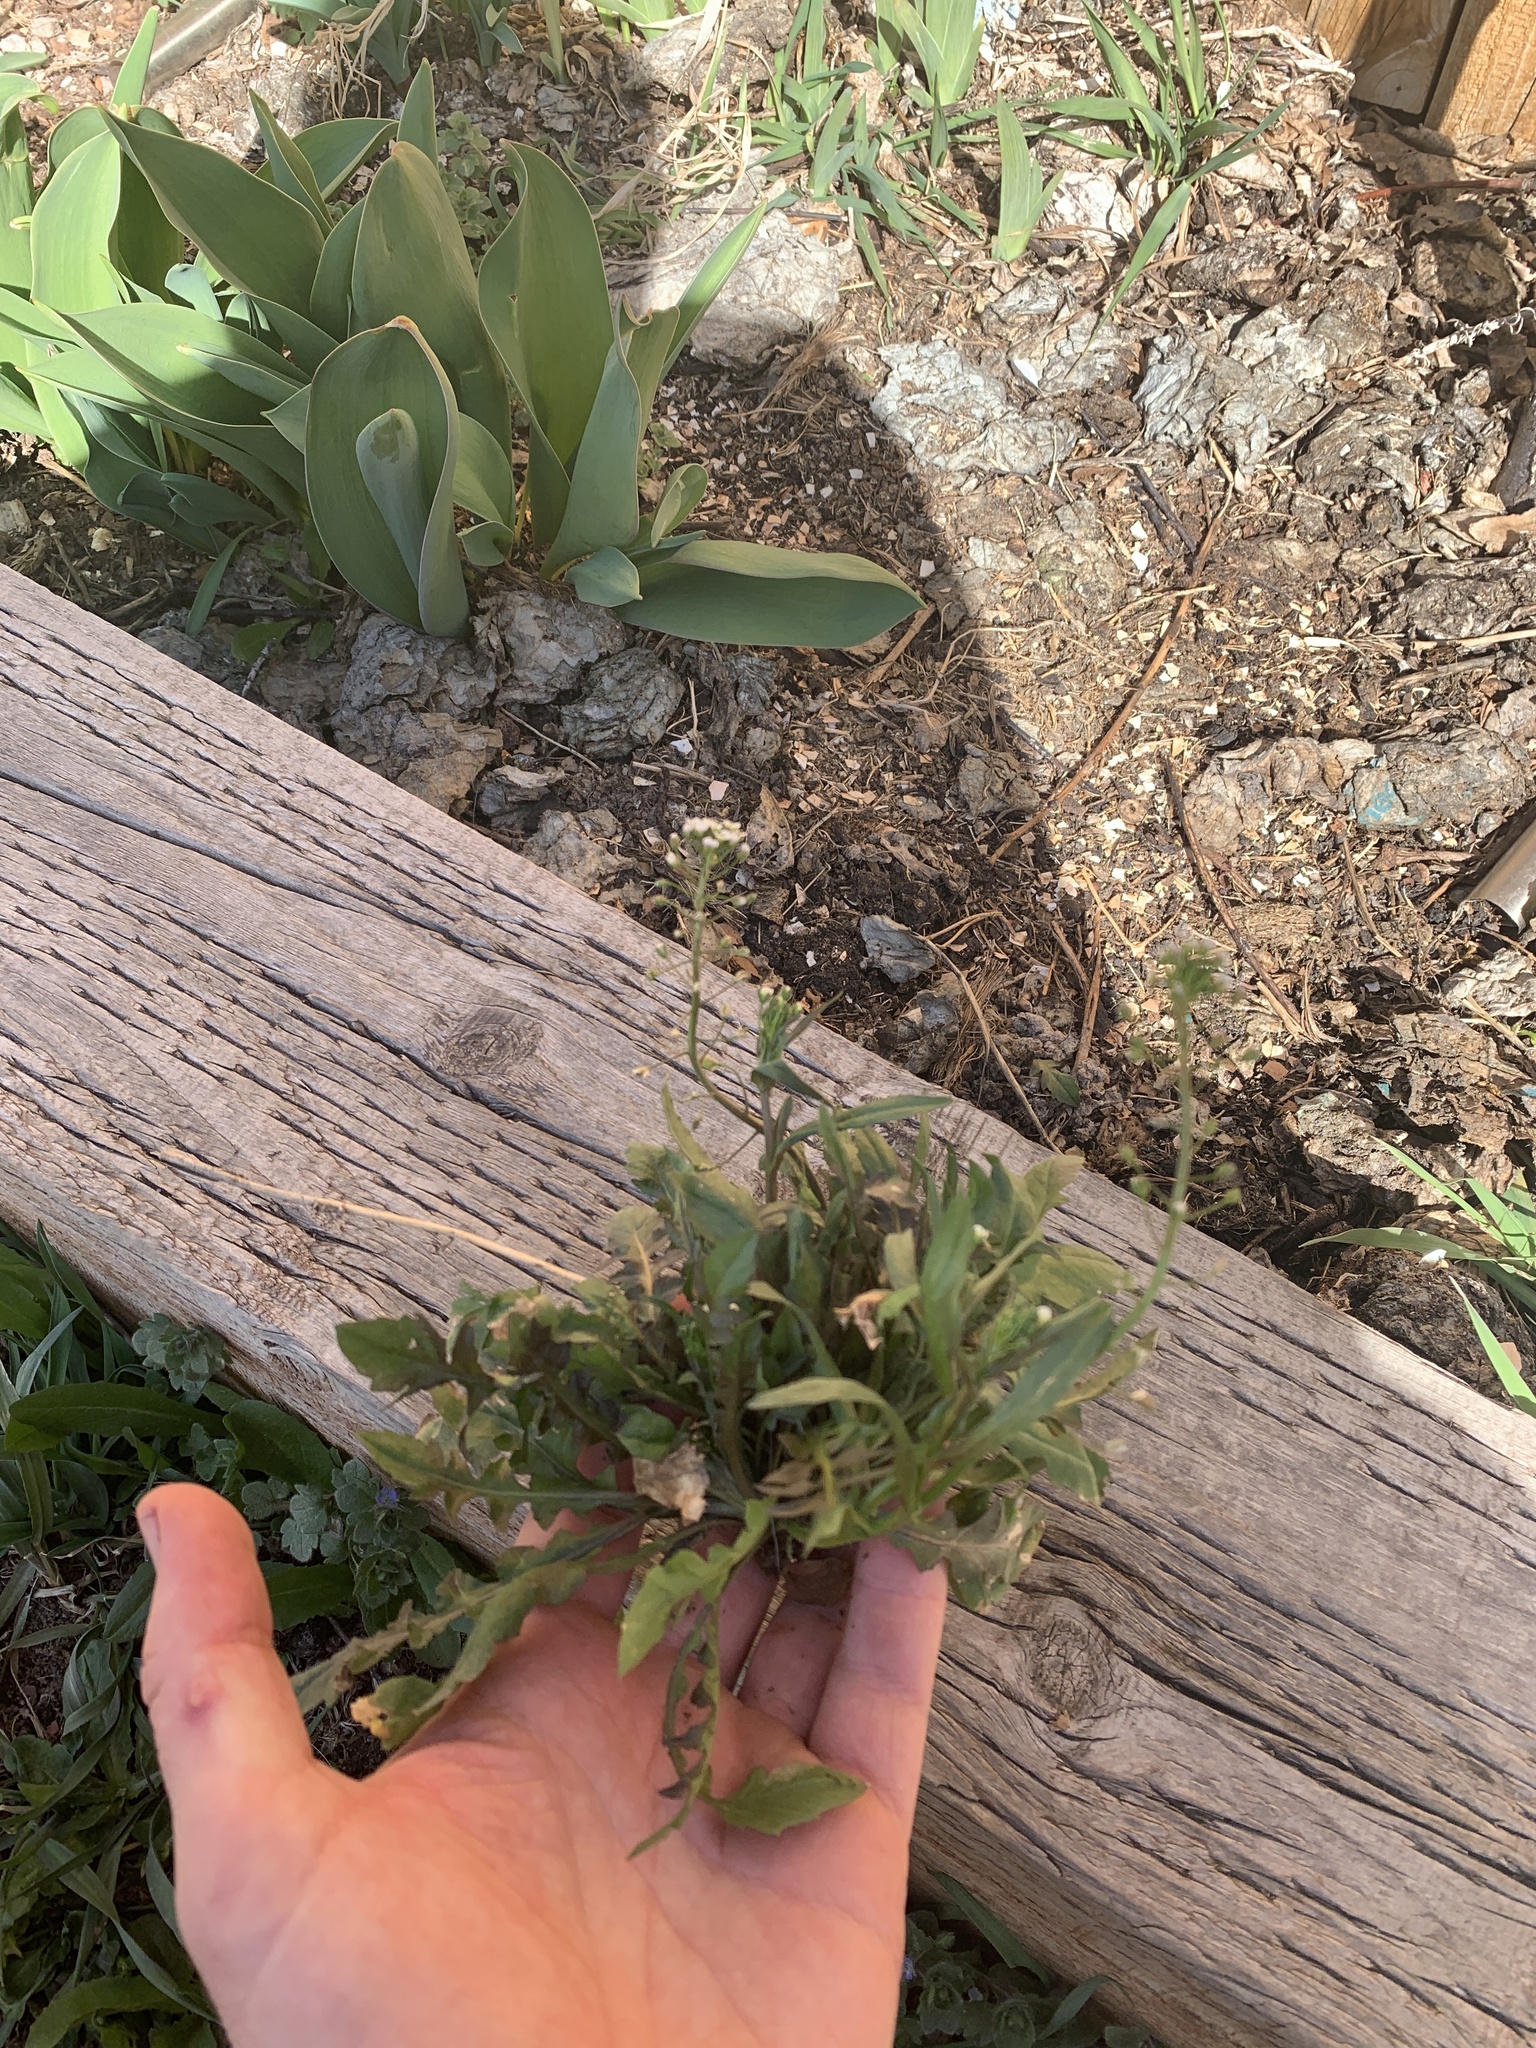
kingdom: Plantae
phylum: Tracheophyta
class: Magnoliopsida
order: Brassicales
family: Brassicaceae
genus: Capsella
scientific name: Capsella bursa-pastoris
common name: Shepherd's purse
